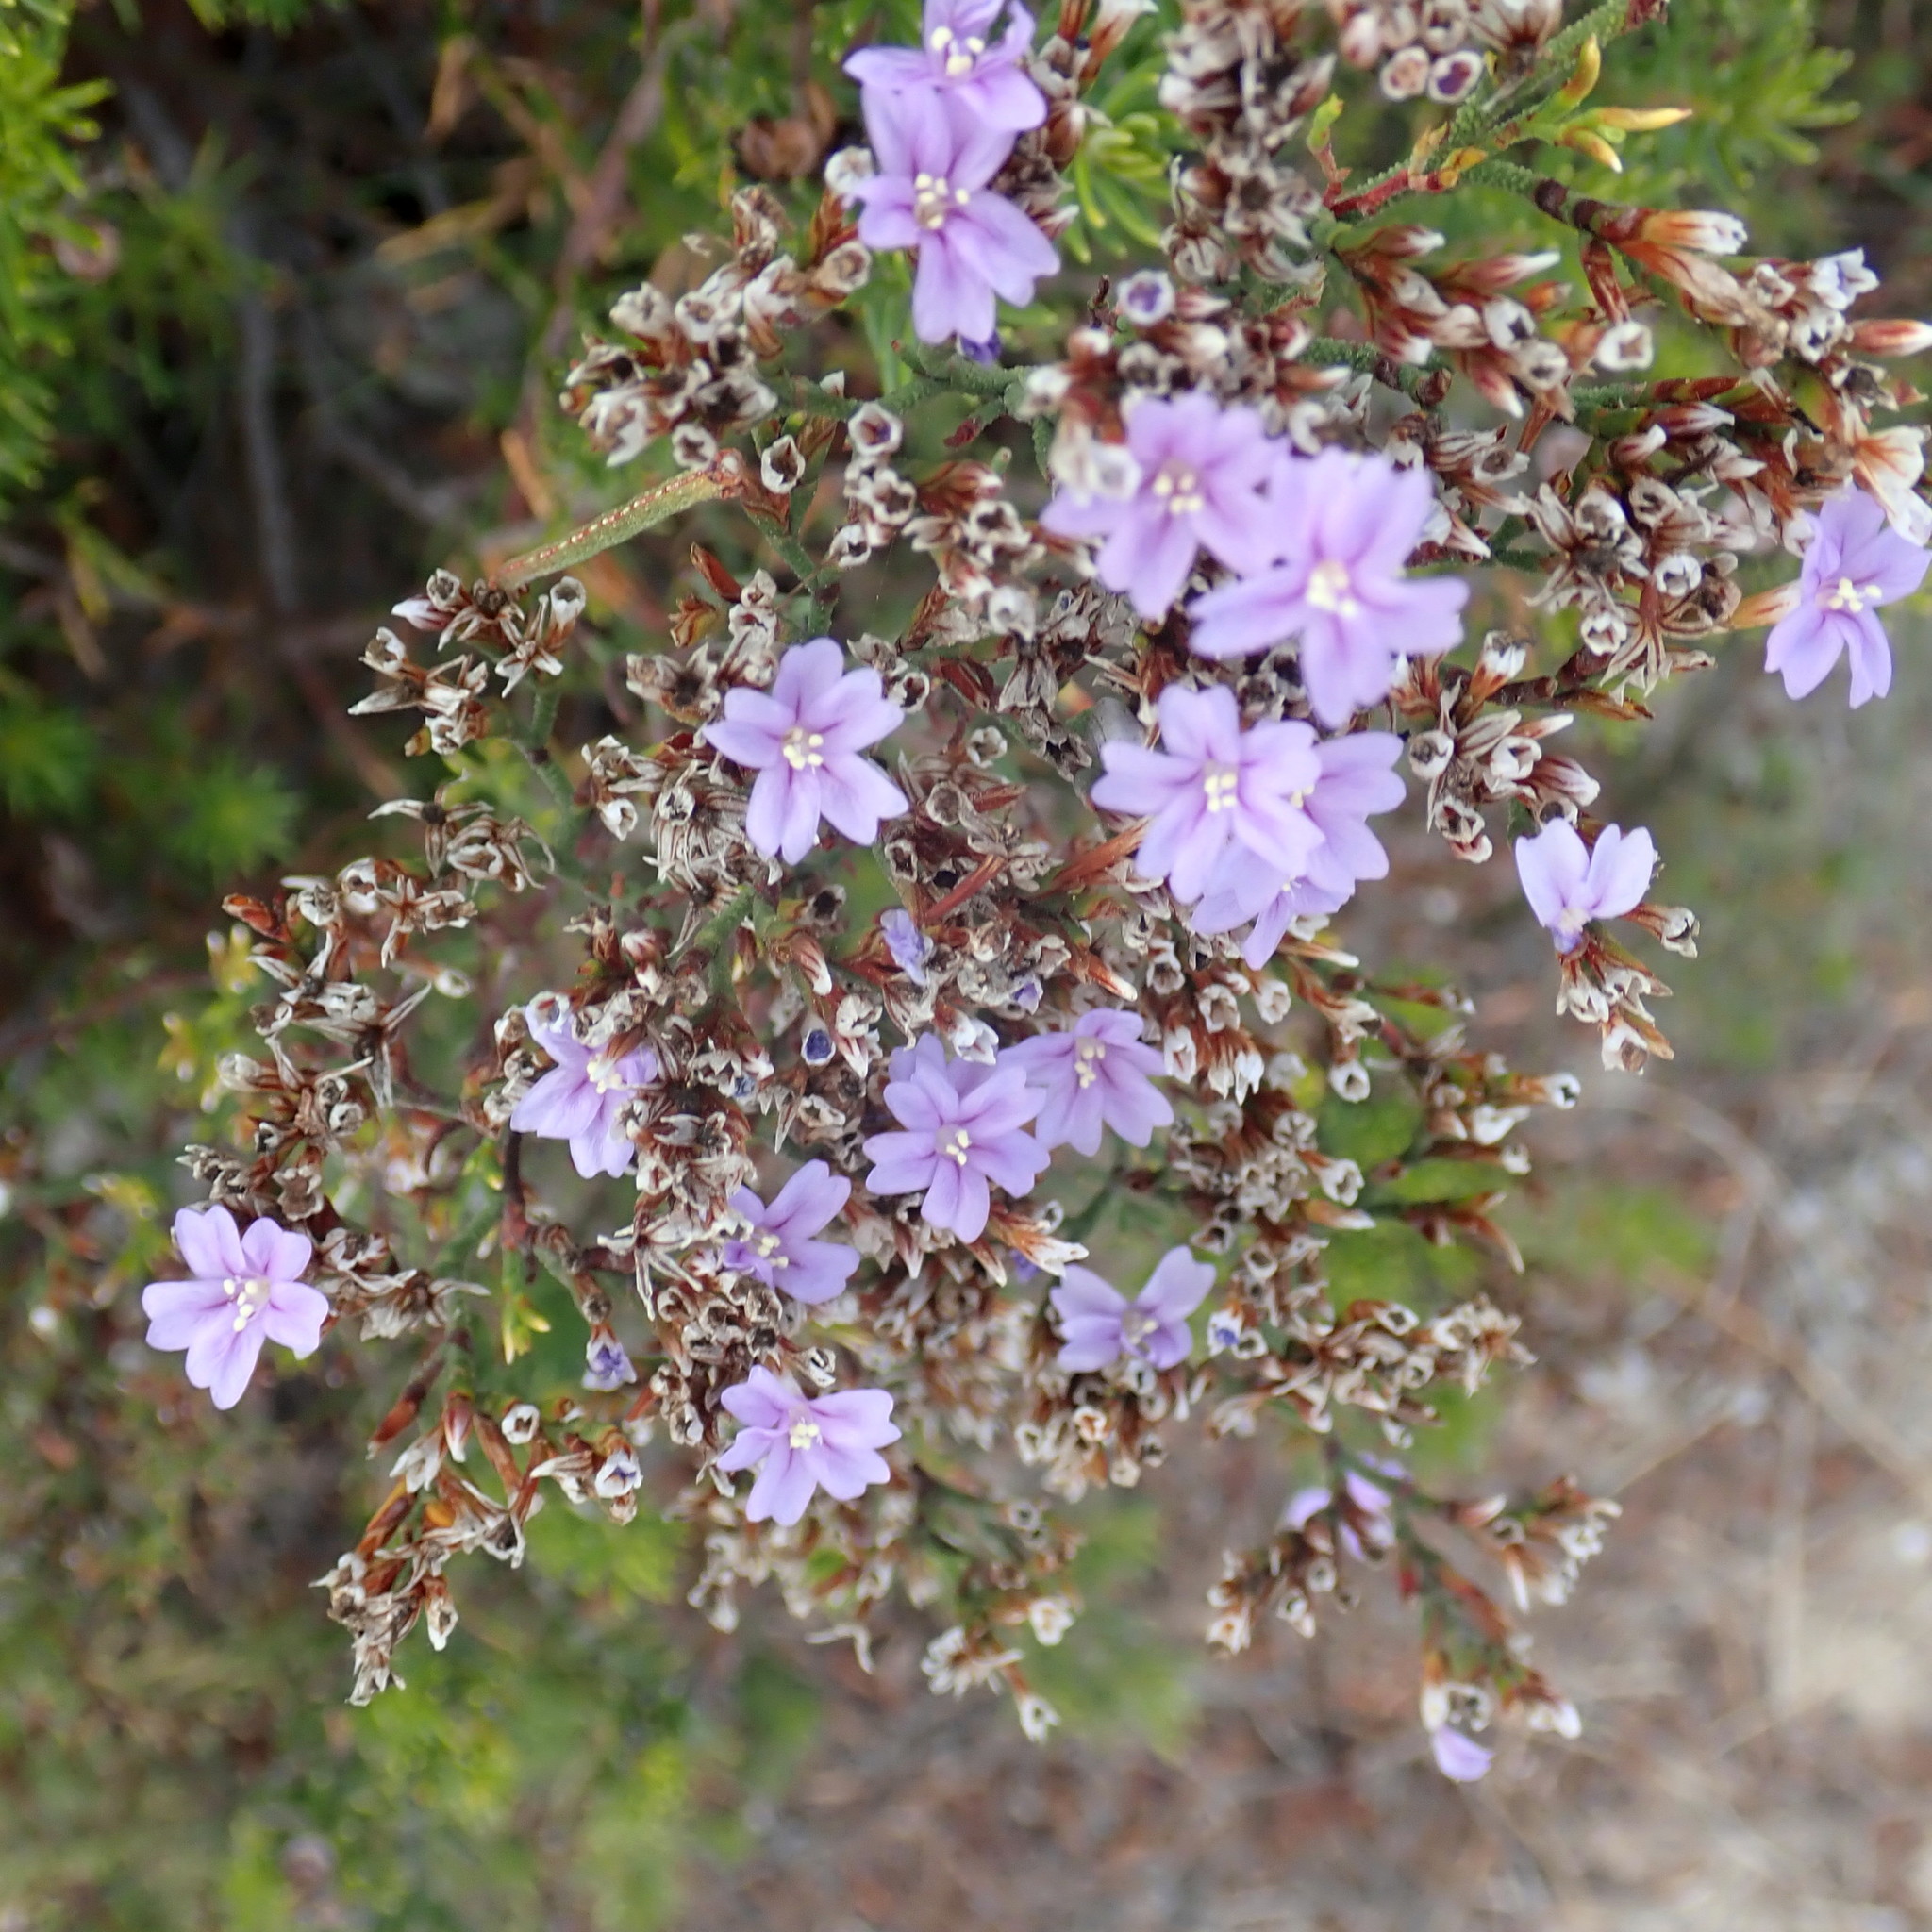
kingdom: Plantae
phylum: Tracheophyta
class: Magnoliopsida
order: Caryophyllales
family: Plumbaginaceae
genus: Limonium
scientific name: Limonium scabrum
